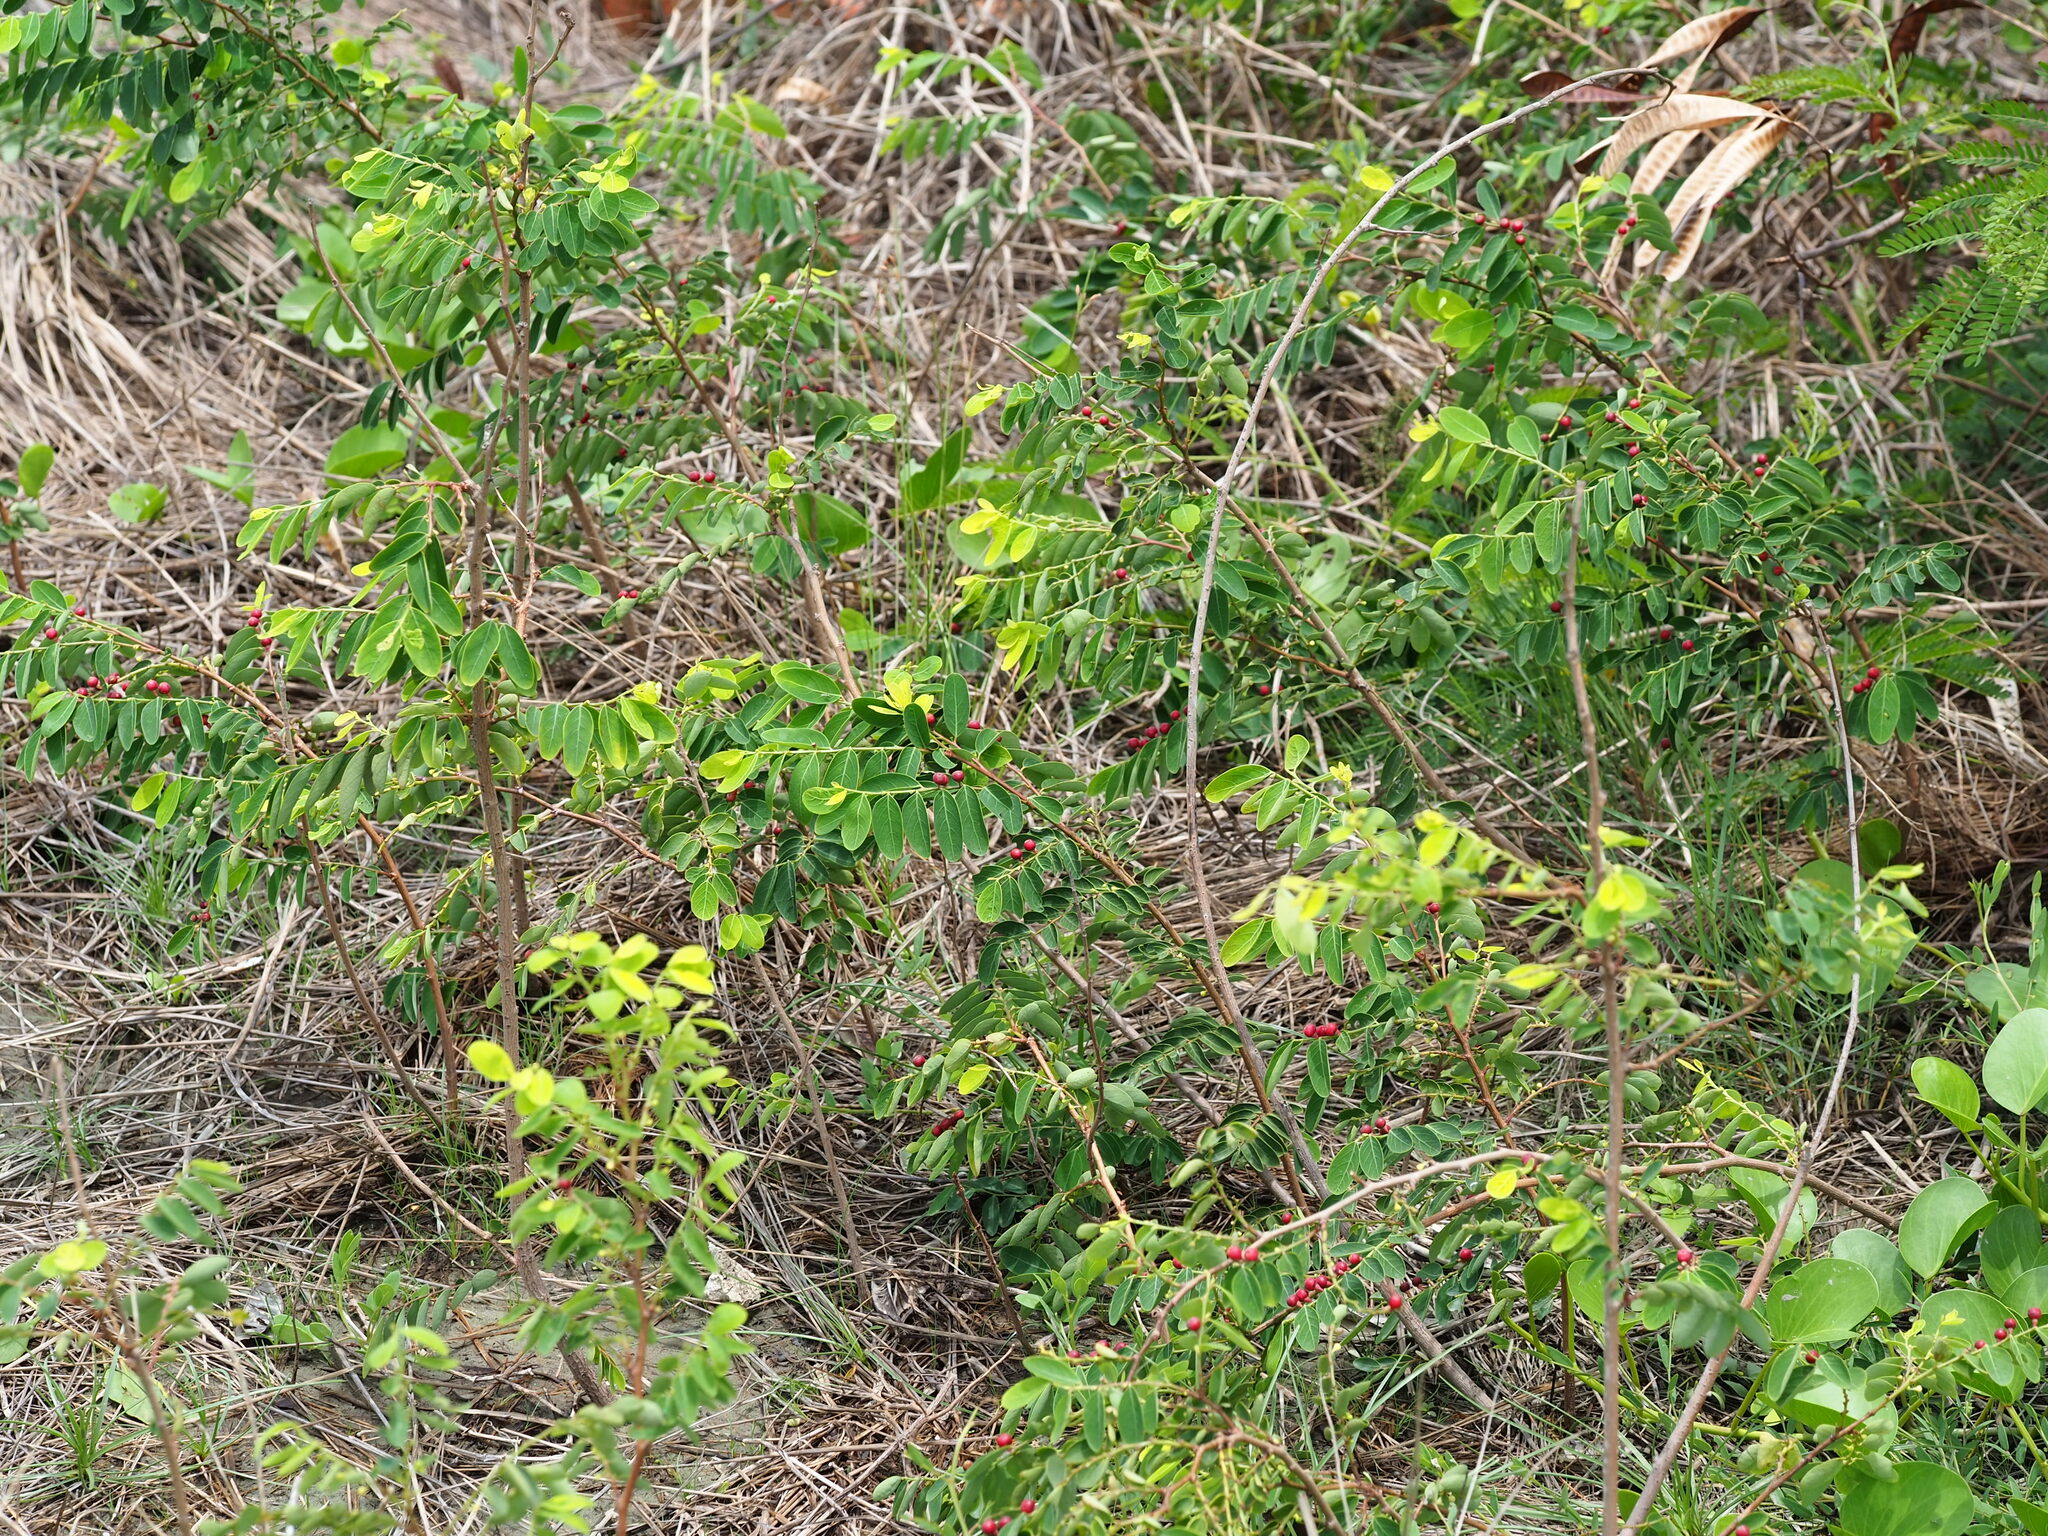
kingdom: Plantae
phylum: Tracheophyta
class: Magnoliopsida
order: Malpighiales
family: Phyllanthaceae
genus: Breynia
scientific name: Breynia vitis-idaea
